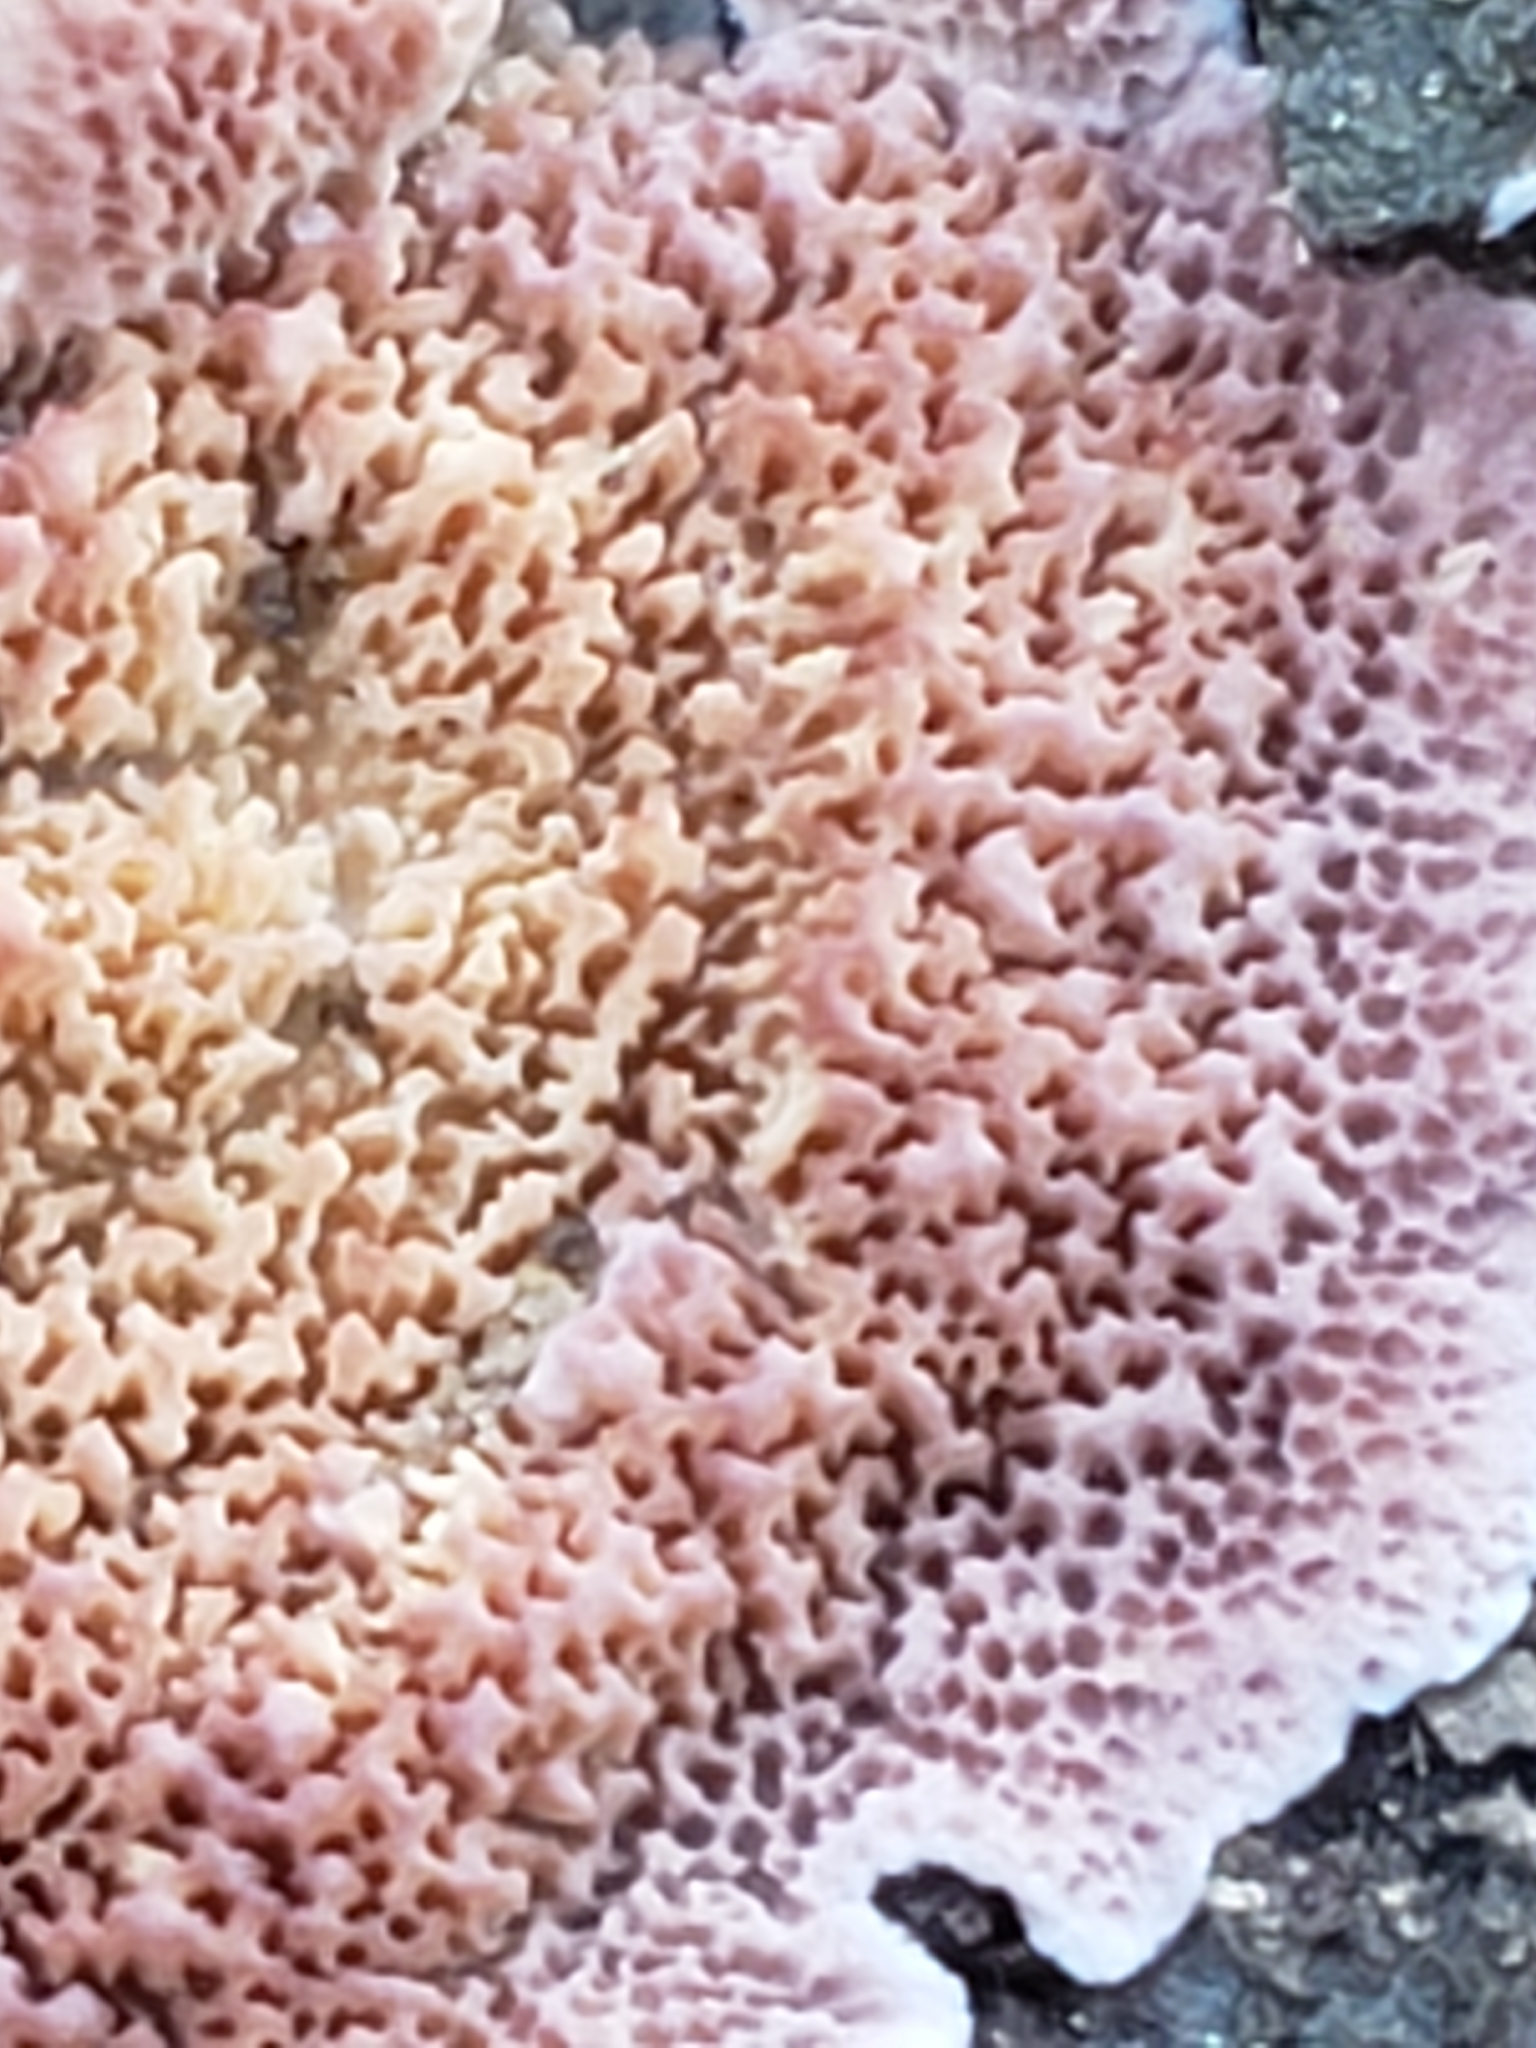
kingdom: Fungi
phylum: Basidiomycota
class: Agaricomycetes
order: Hymenochaetales
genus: Trichaptum
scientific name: Trichaptum biforme
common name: Violet-toothed polypore
